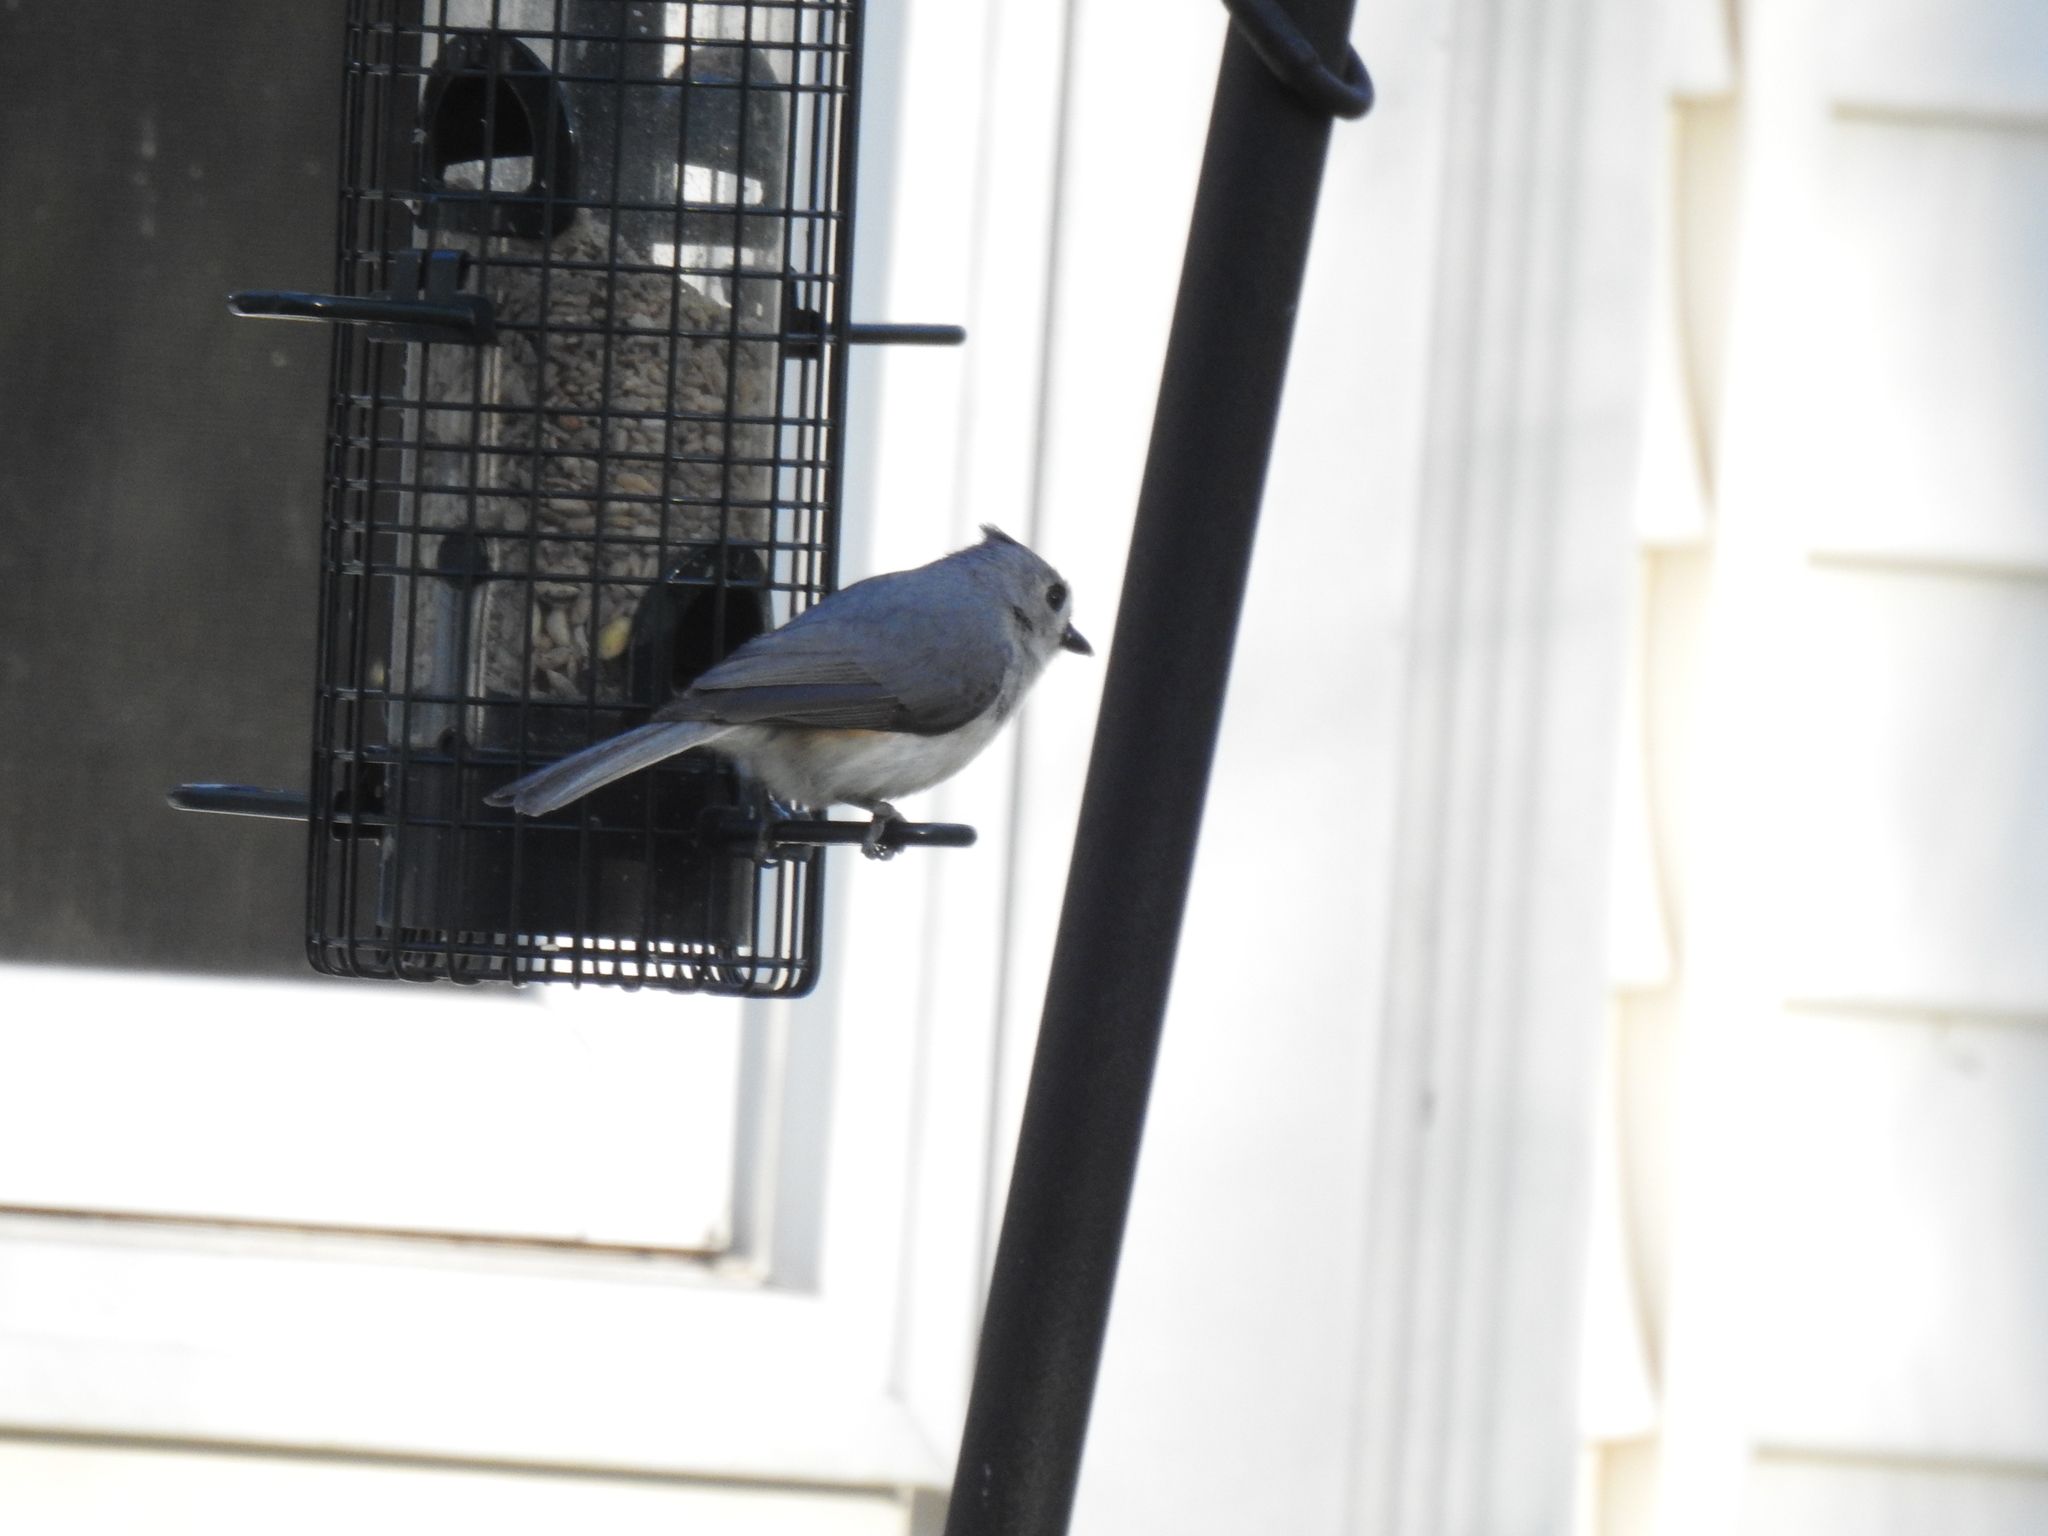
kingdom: Animalia
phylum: Chordata
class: Aves
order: Passeriformes
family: Paridae
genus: Baeolophus
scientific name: Baeolophus bicolor
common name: Tufted titmouse
